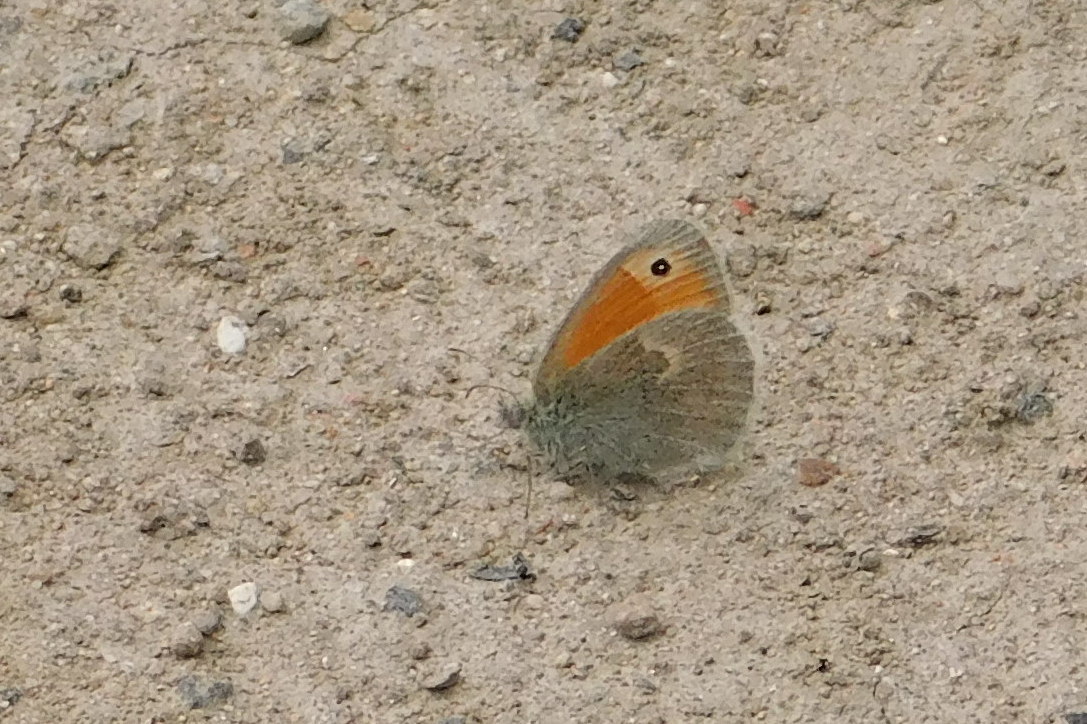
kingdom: Animalia
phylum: Arthropoda
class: Insecta
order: Lepidoptera
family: Nymphalidae
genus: Coenonympha
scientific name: Coenonympha pamphilus
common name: Small heath
